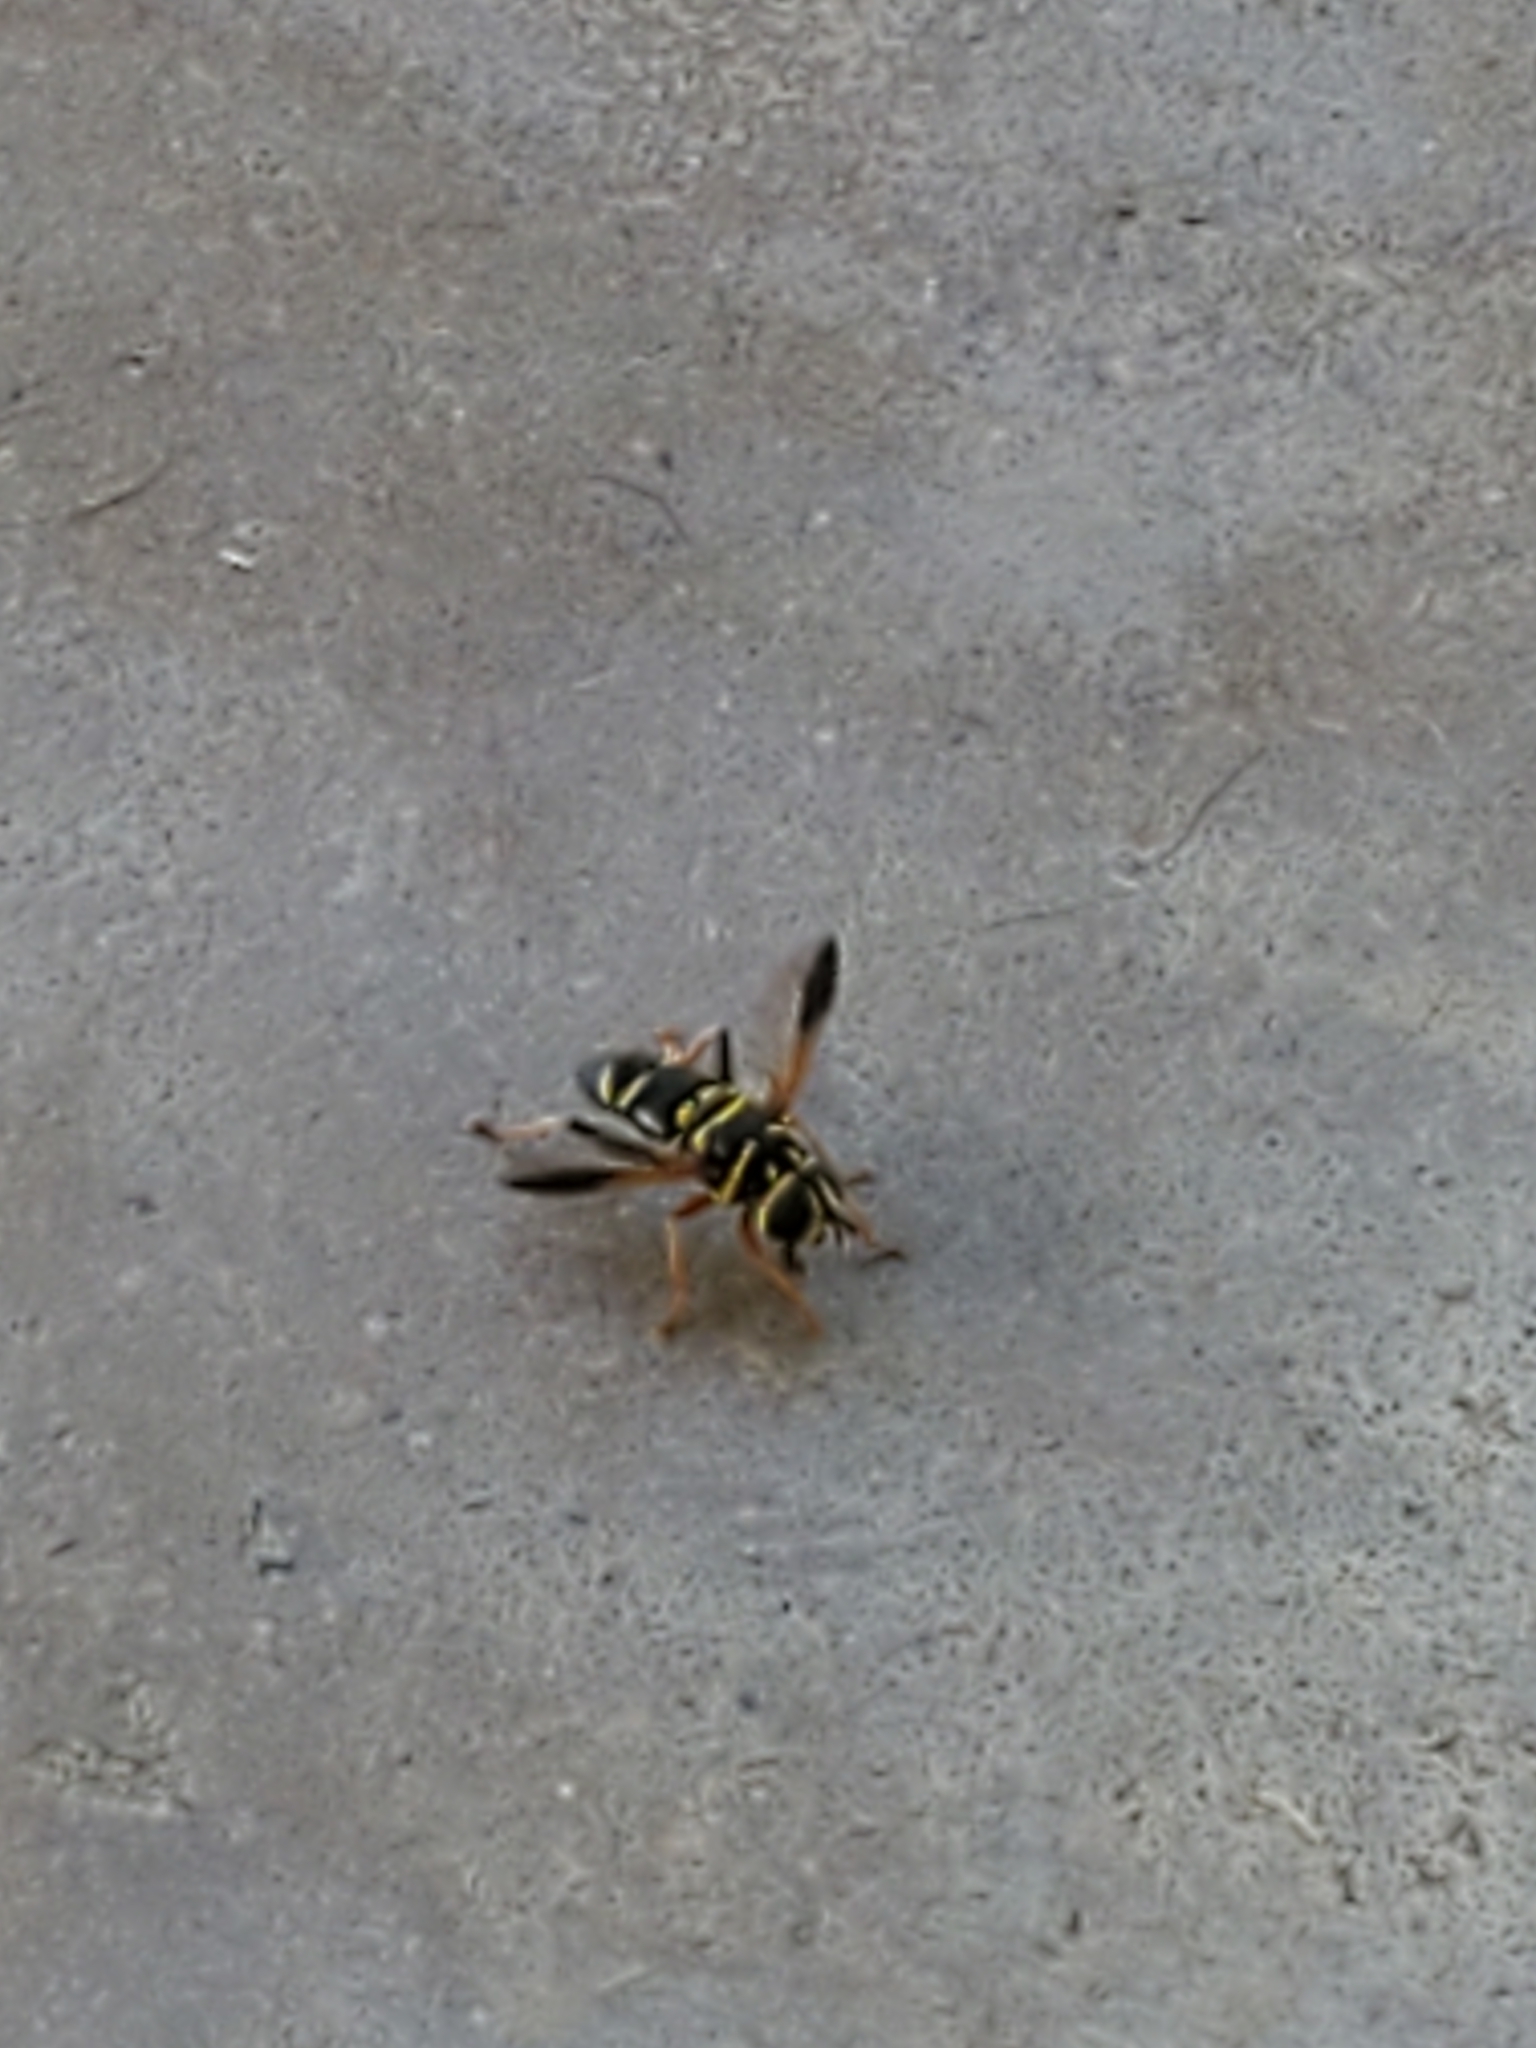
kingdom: Animalia
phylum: Arthropoda
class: Insecta
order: Diptera
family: Syrphidae
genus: Meromacrus
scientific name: Meromacrus acutus
